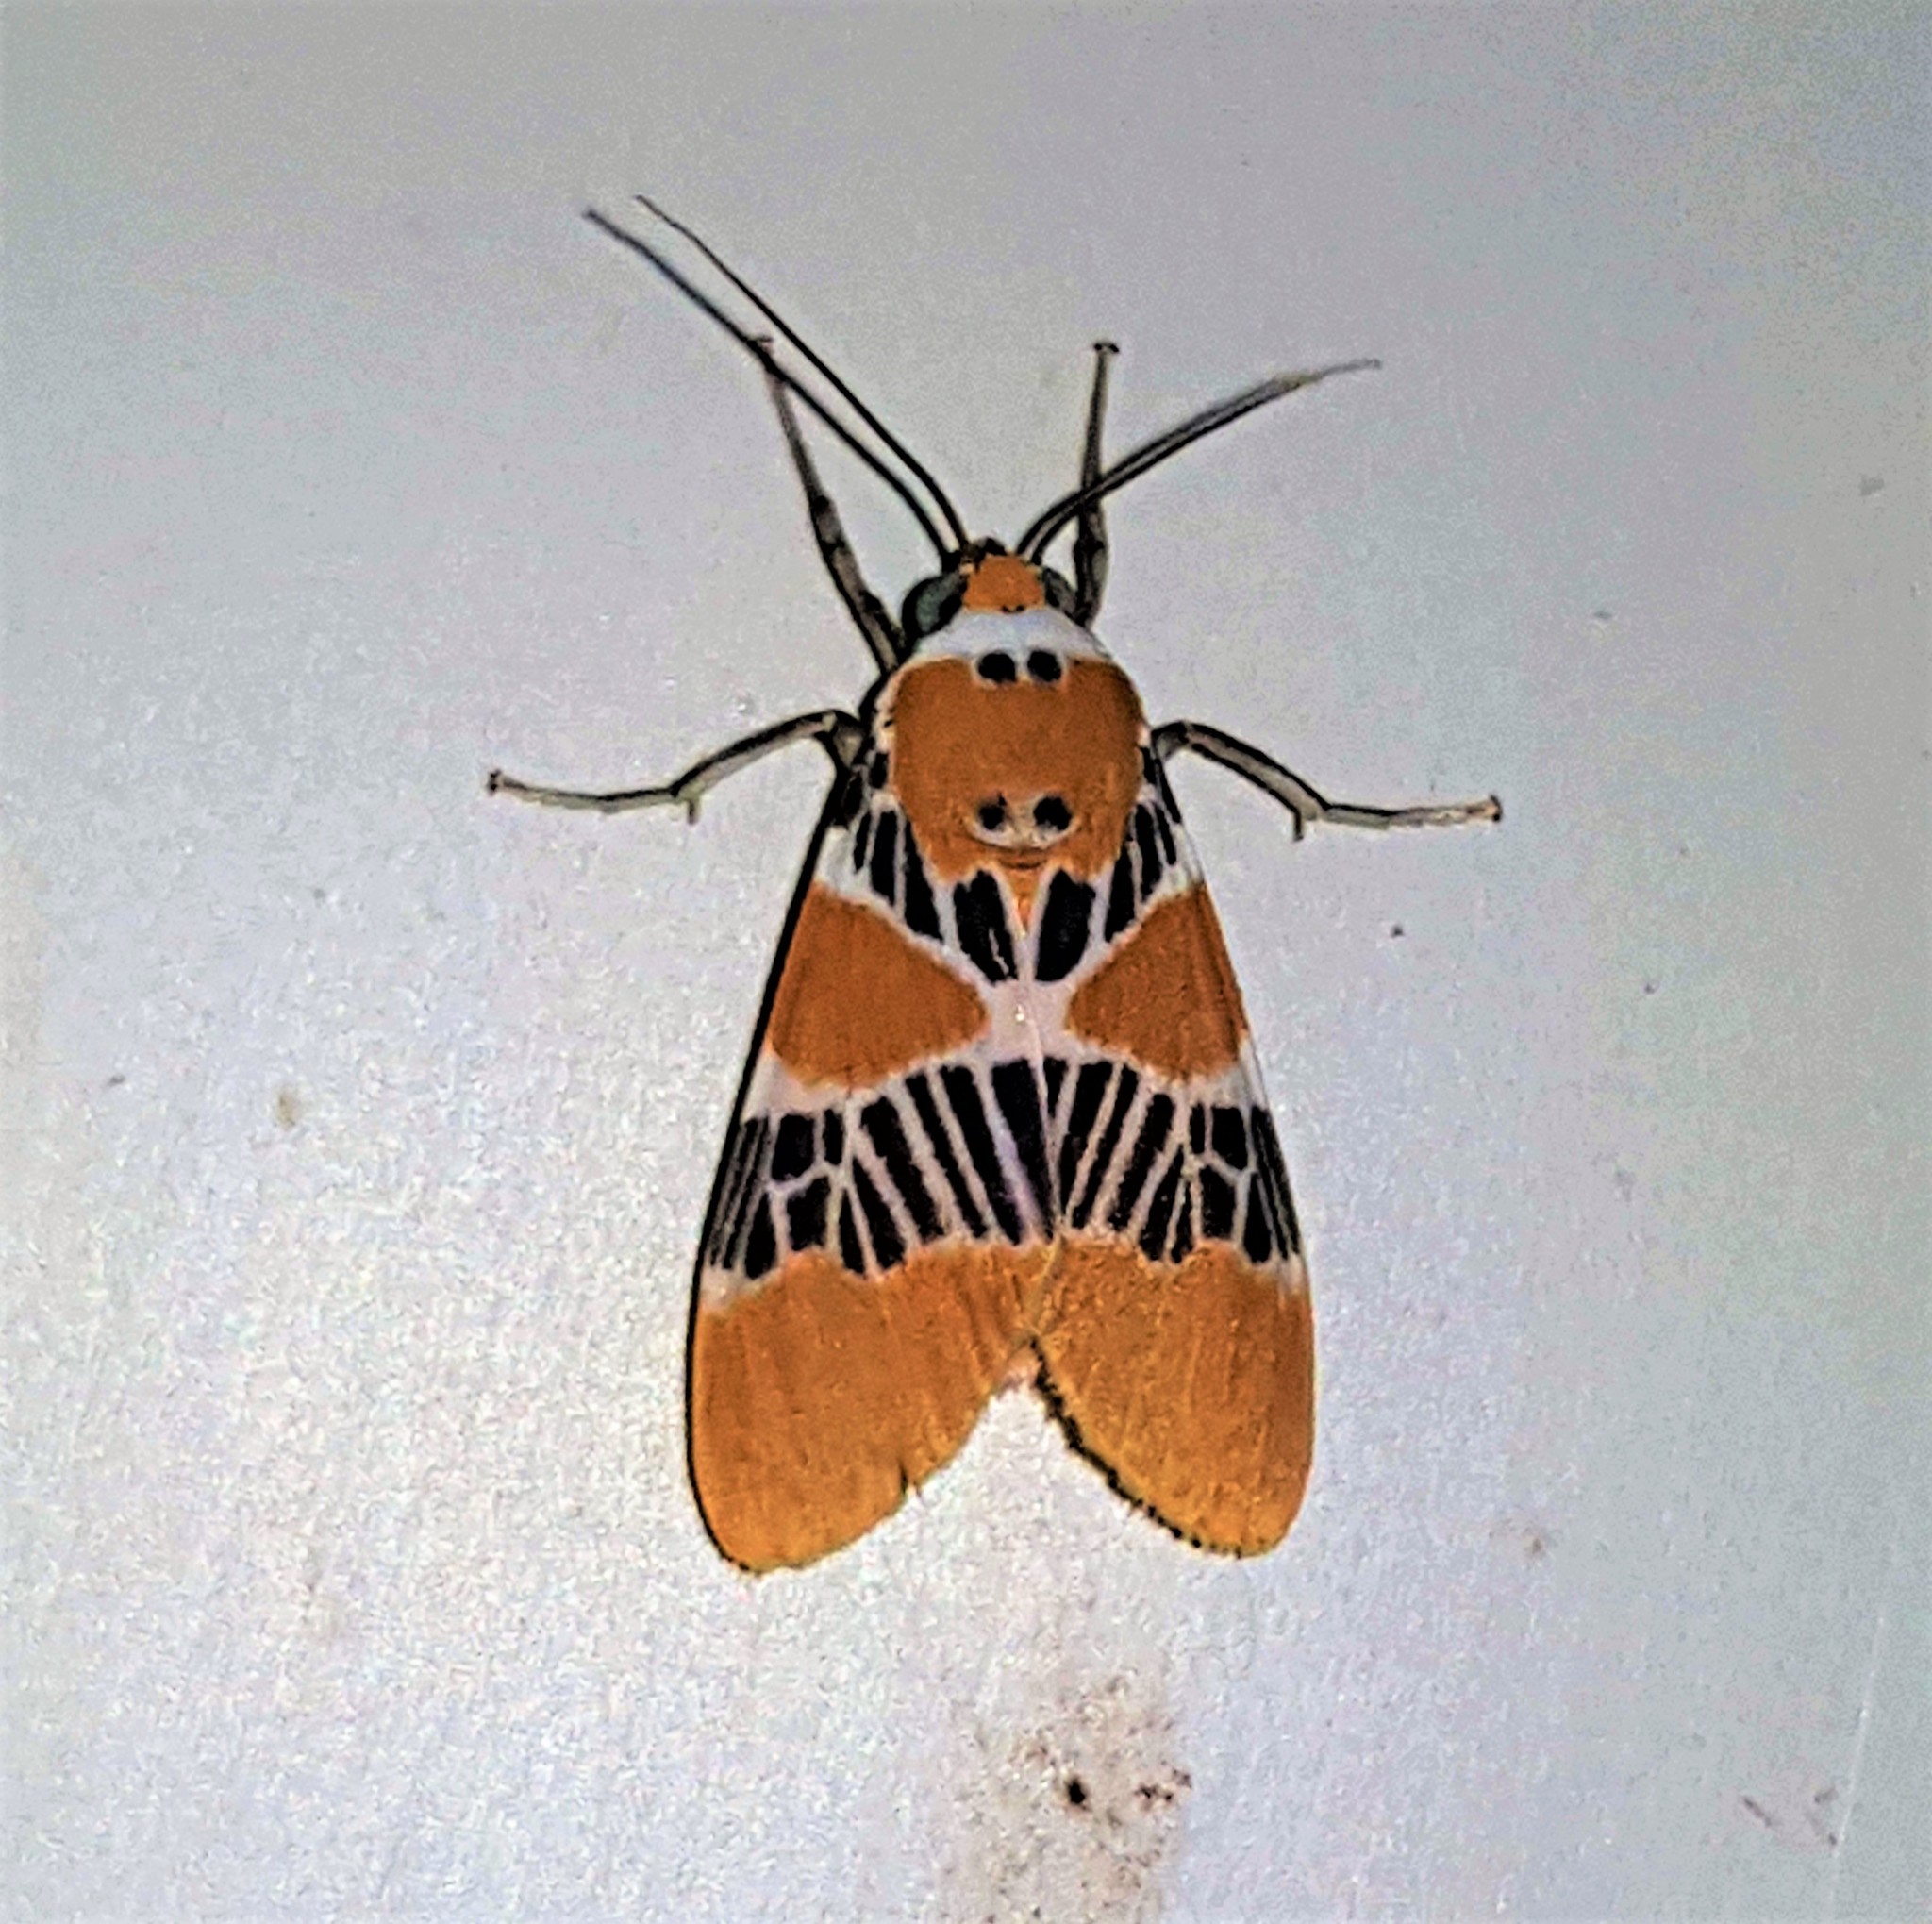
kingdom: Animalia
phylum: Arthropoda
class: Insecta
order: Lepidoptera
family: Erebidae
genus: Idalus
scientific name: Idalus ochreata
